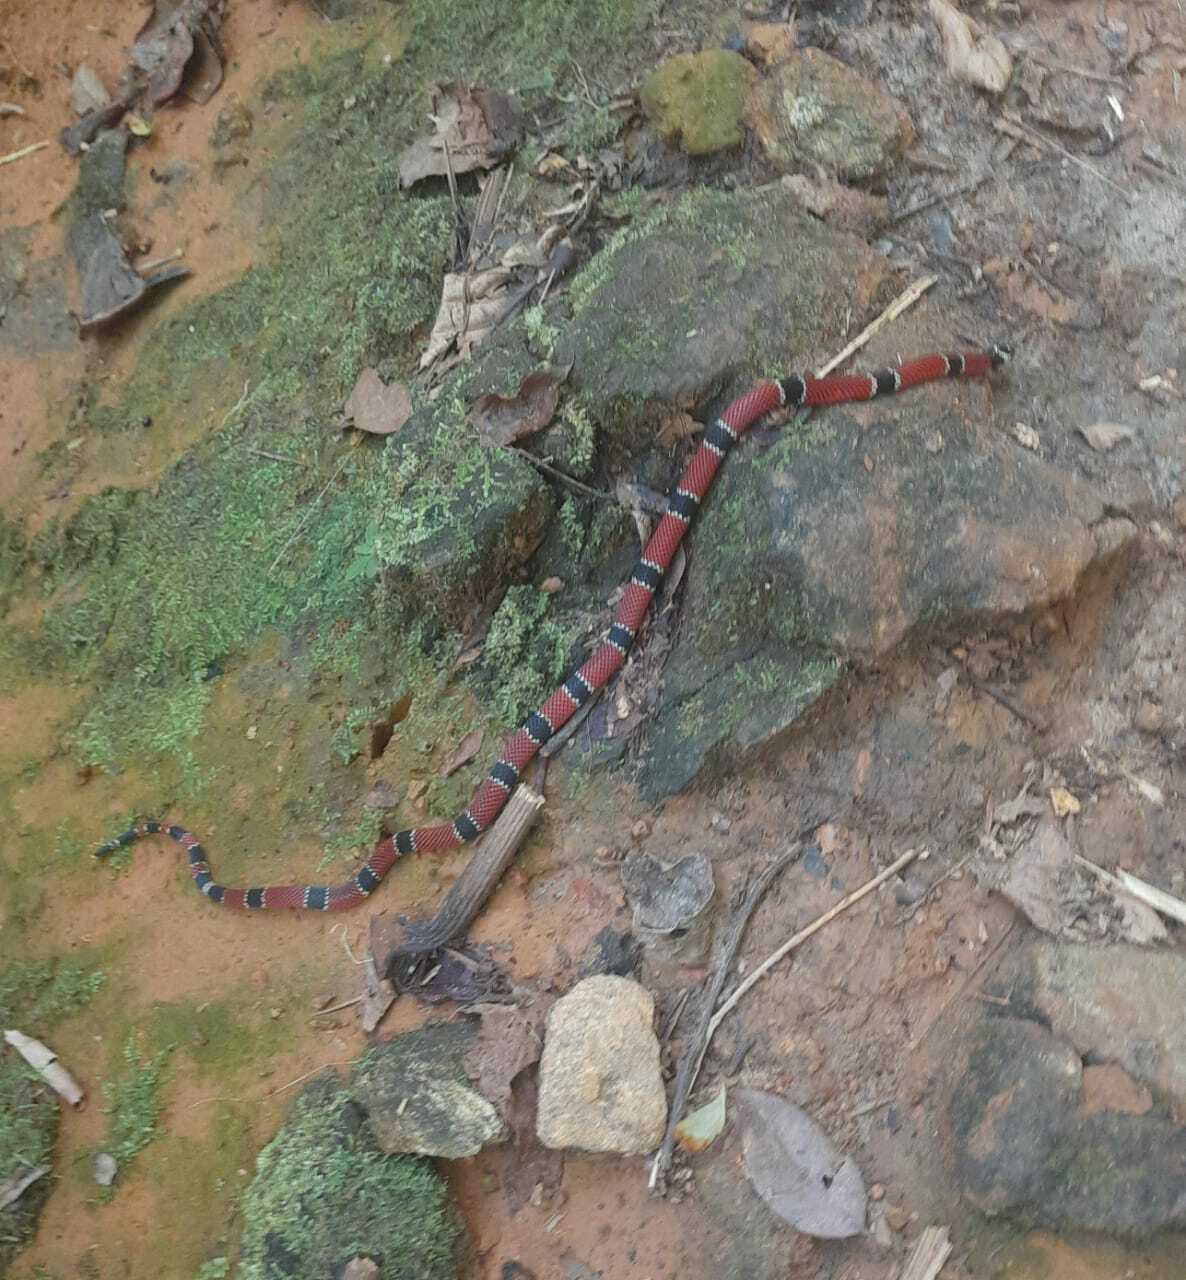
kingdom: Animalia
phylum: Chordata
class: Squamata
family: Elapidae
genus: Micrurus
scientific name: Micrurus corallinus
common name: Painted coral snake
